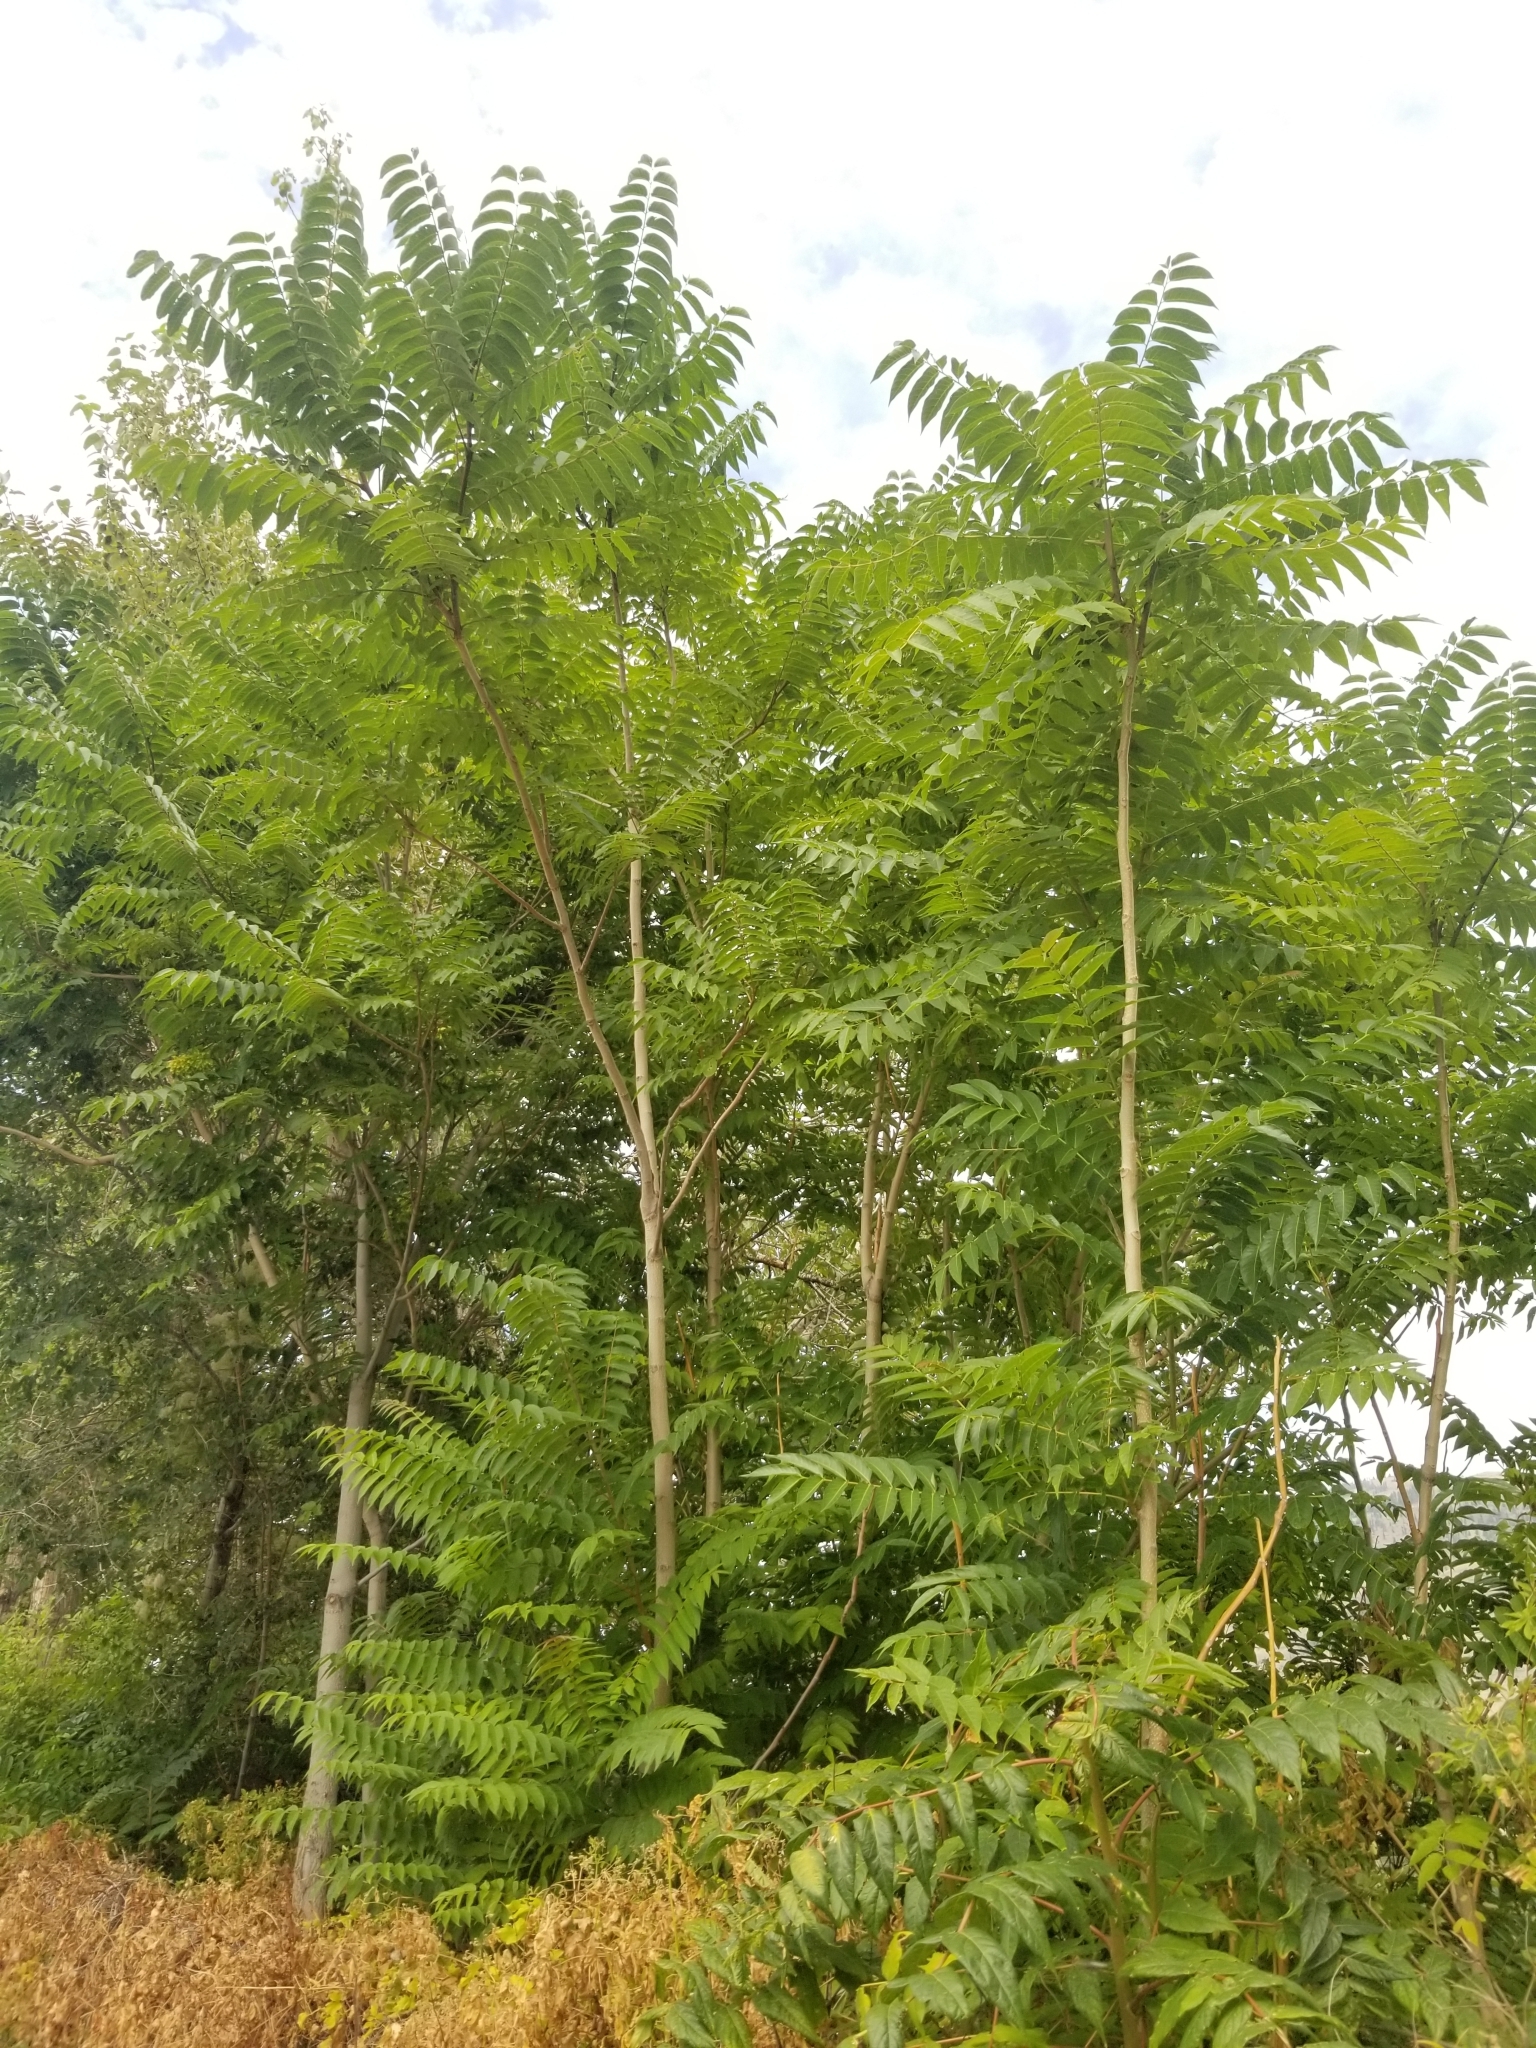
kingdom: Plantae
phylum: Tracheophyta
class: Magnoliopsida
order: Sapindales
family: Simaroubaceae
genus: Ailanthus
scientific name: Ailanthus altissima
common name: Tree-of-heaven
